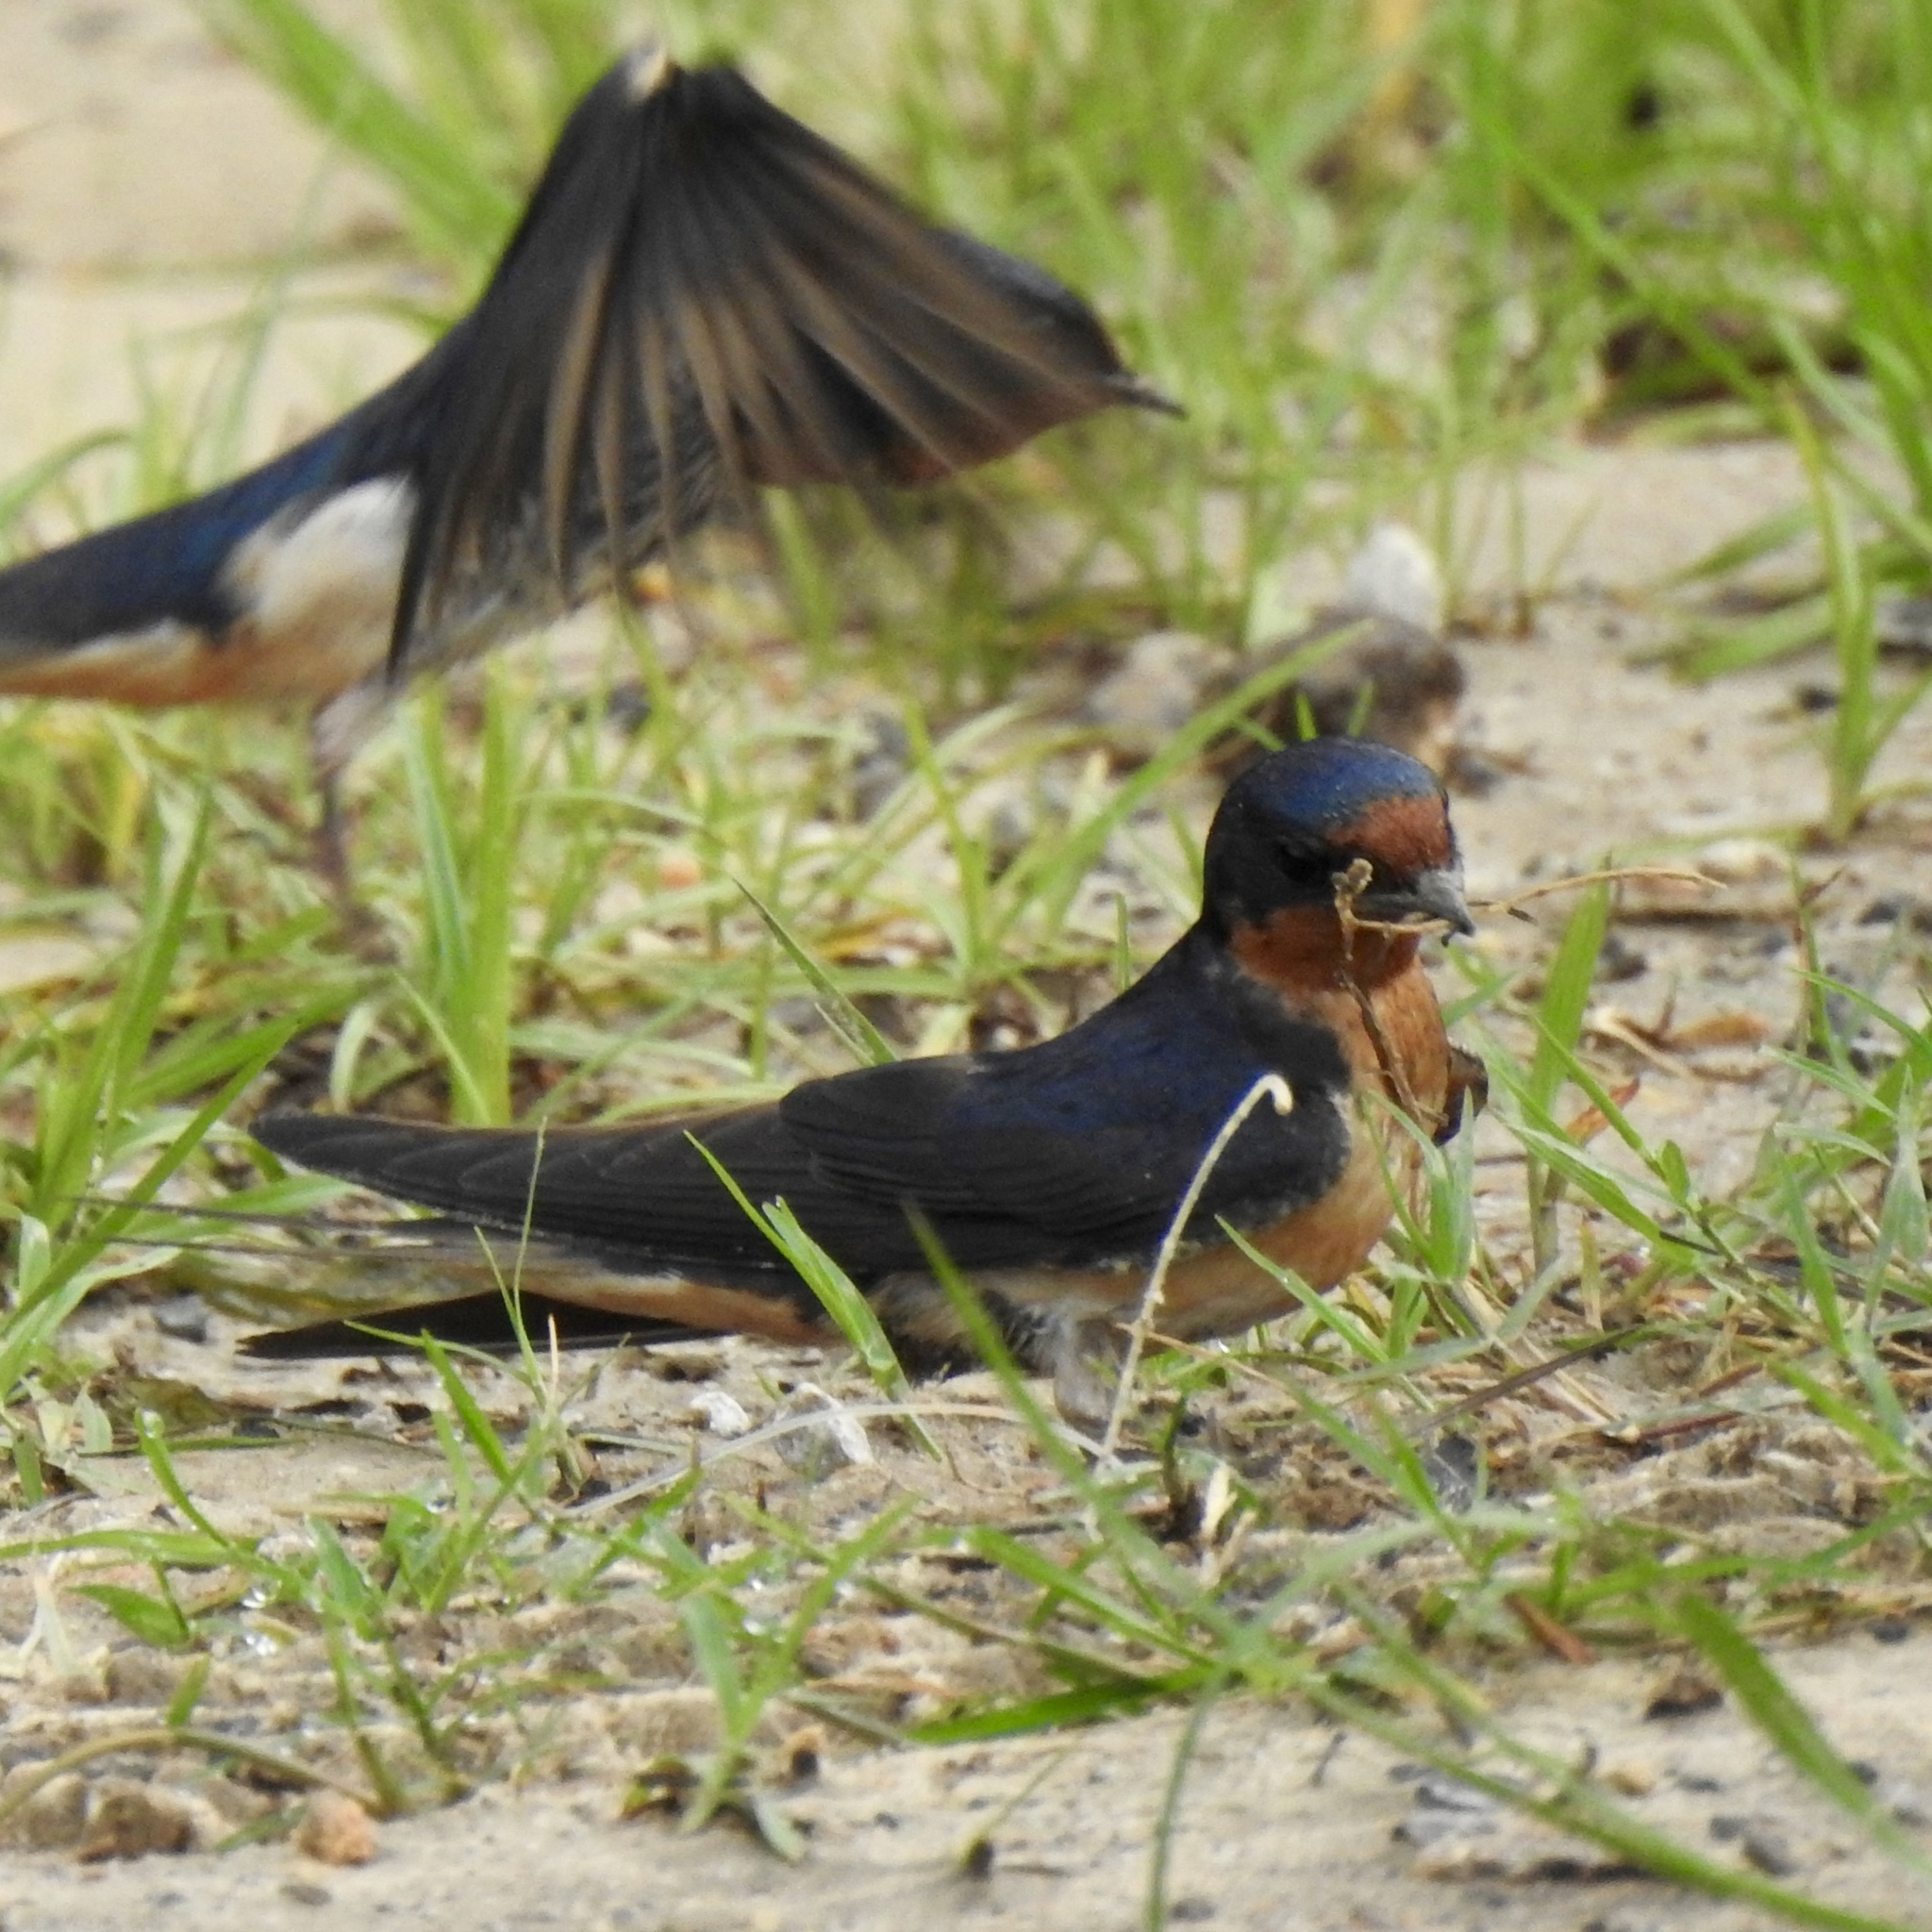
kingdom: Animalia
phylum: Chordata
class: Aves
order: Passeriformes
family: Hirundinidae
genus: Hirundo
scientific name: Hirundo rustica
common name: Barn swallow
